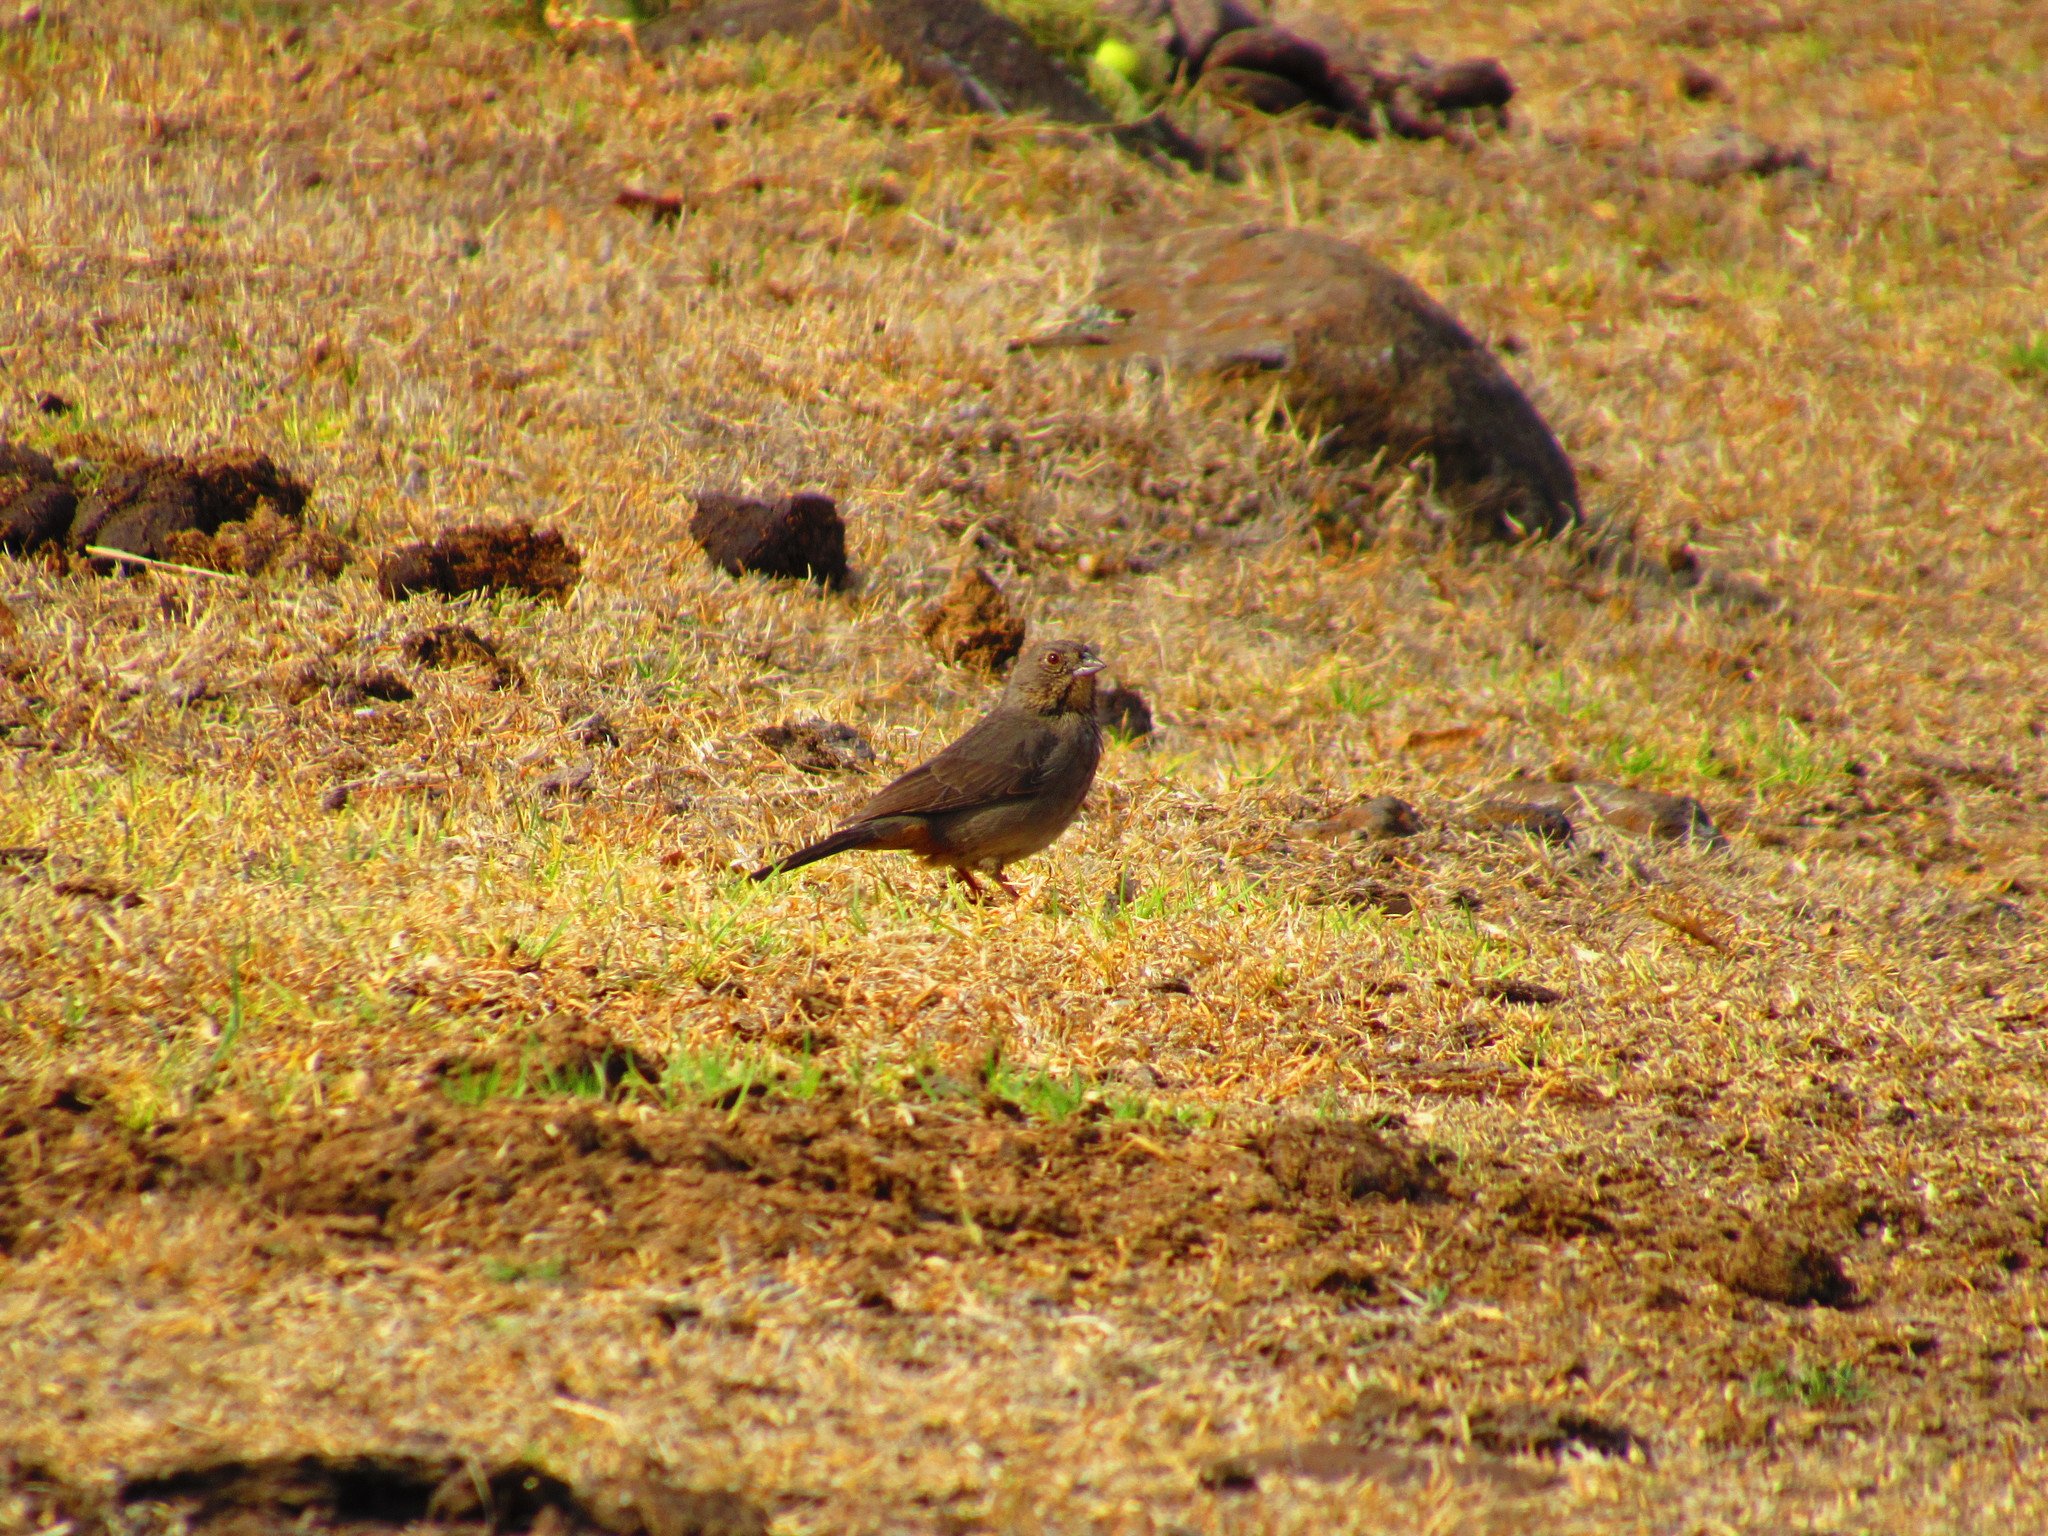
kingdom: Animalia
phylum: Chordata
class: Aves
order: Passeriformes
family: Passerellidae
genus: Melozone
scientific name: Melozone fusca
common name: Canyon towhee
